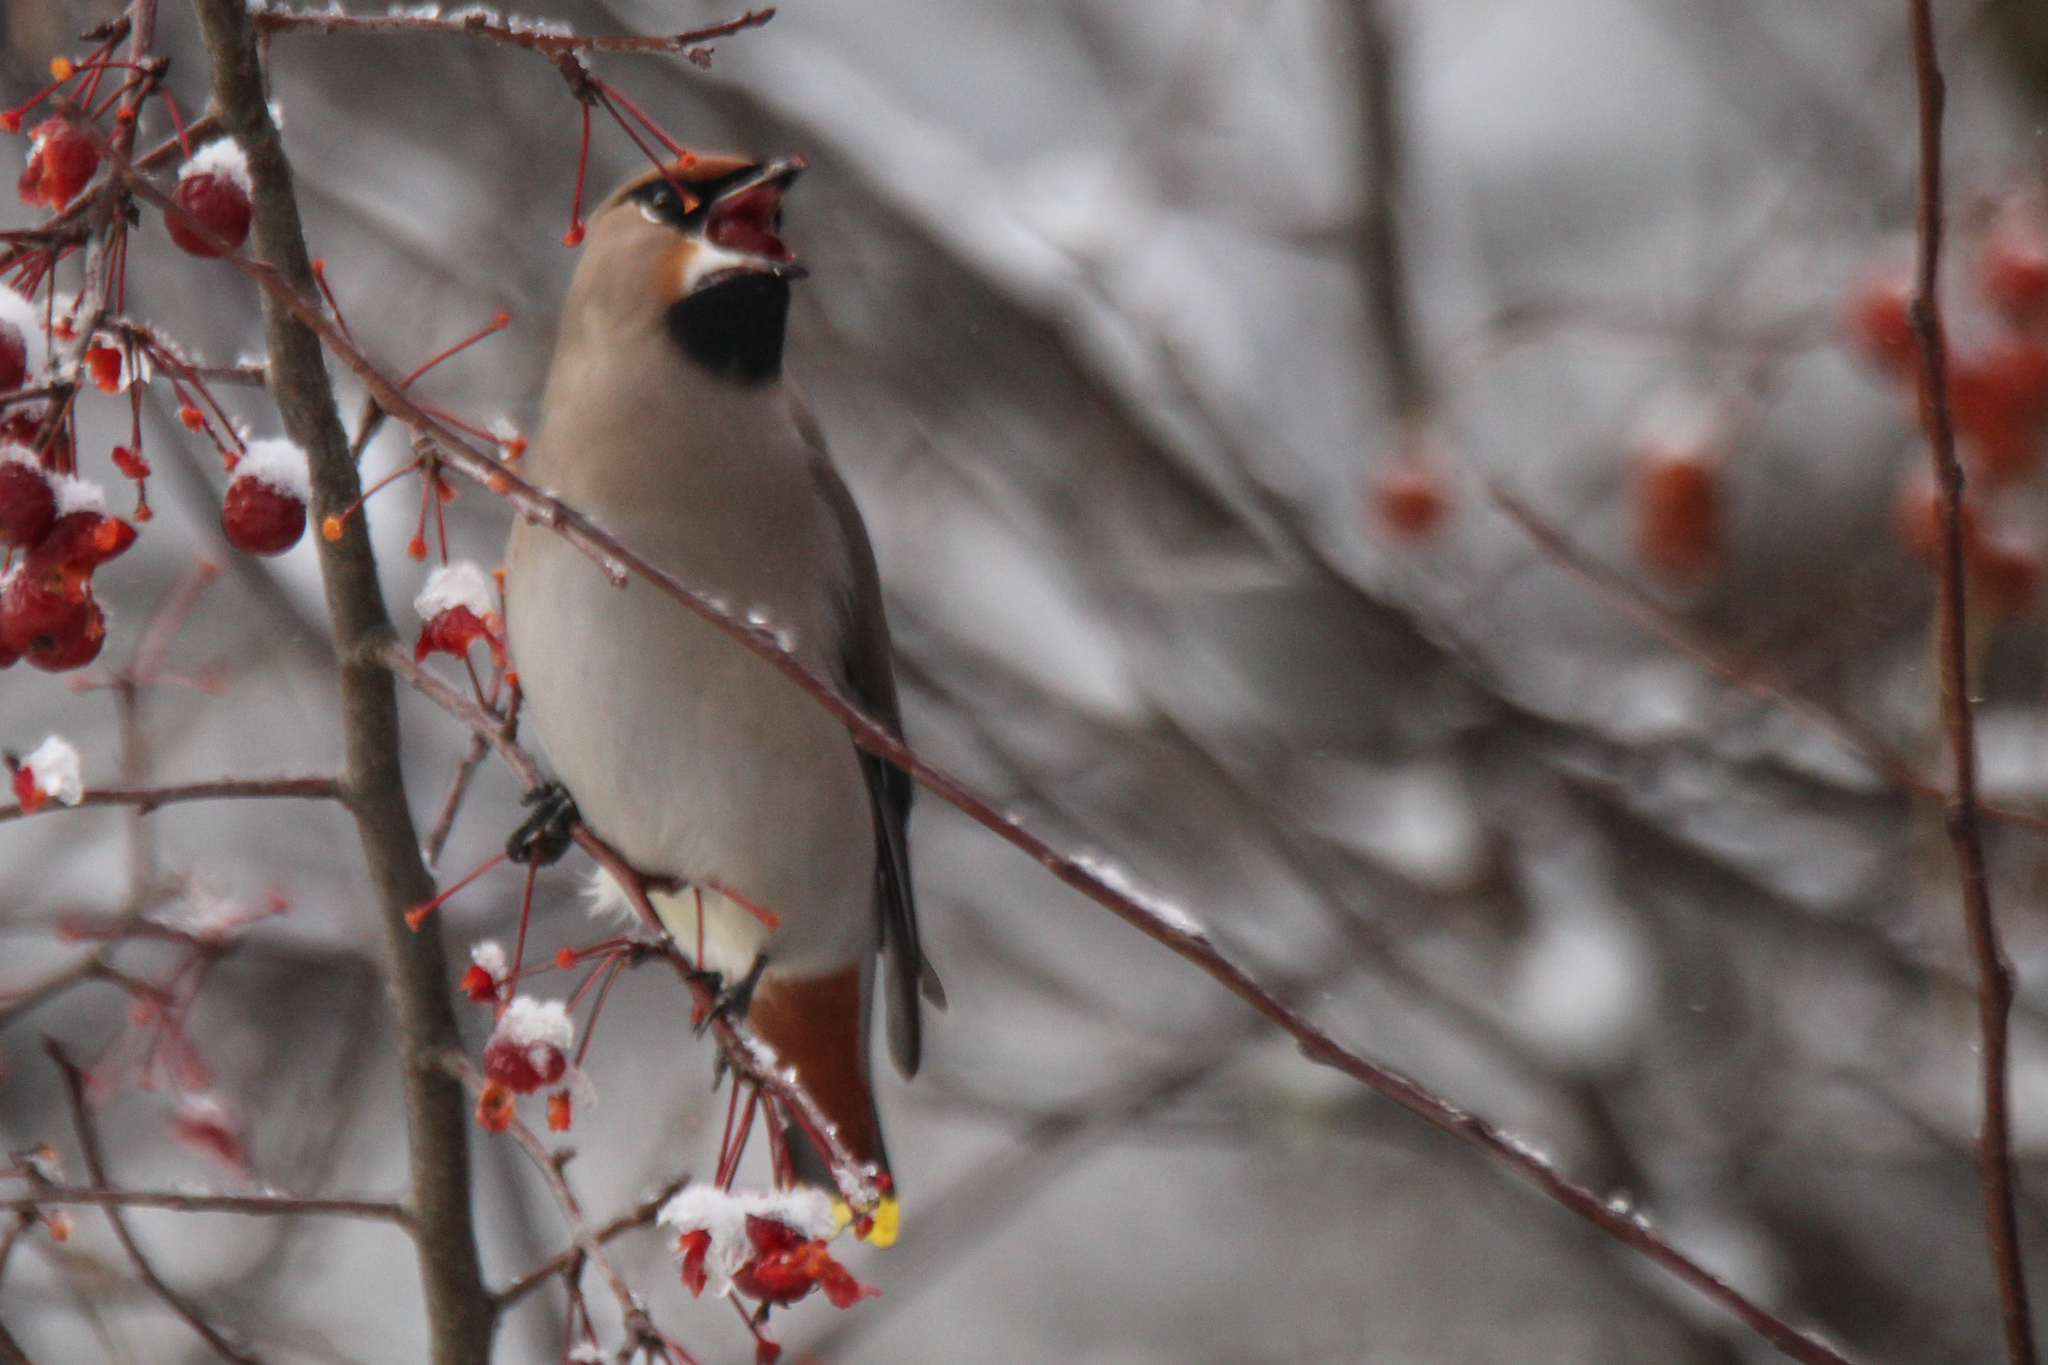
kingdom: Animalia
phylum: Chordata
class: Aves
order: Passeriformes
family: Bombycillidae
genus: Bombycilla
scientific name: Bombycilla garrulus
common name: Bohemian waxwing
